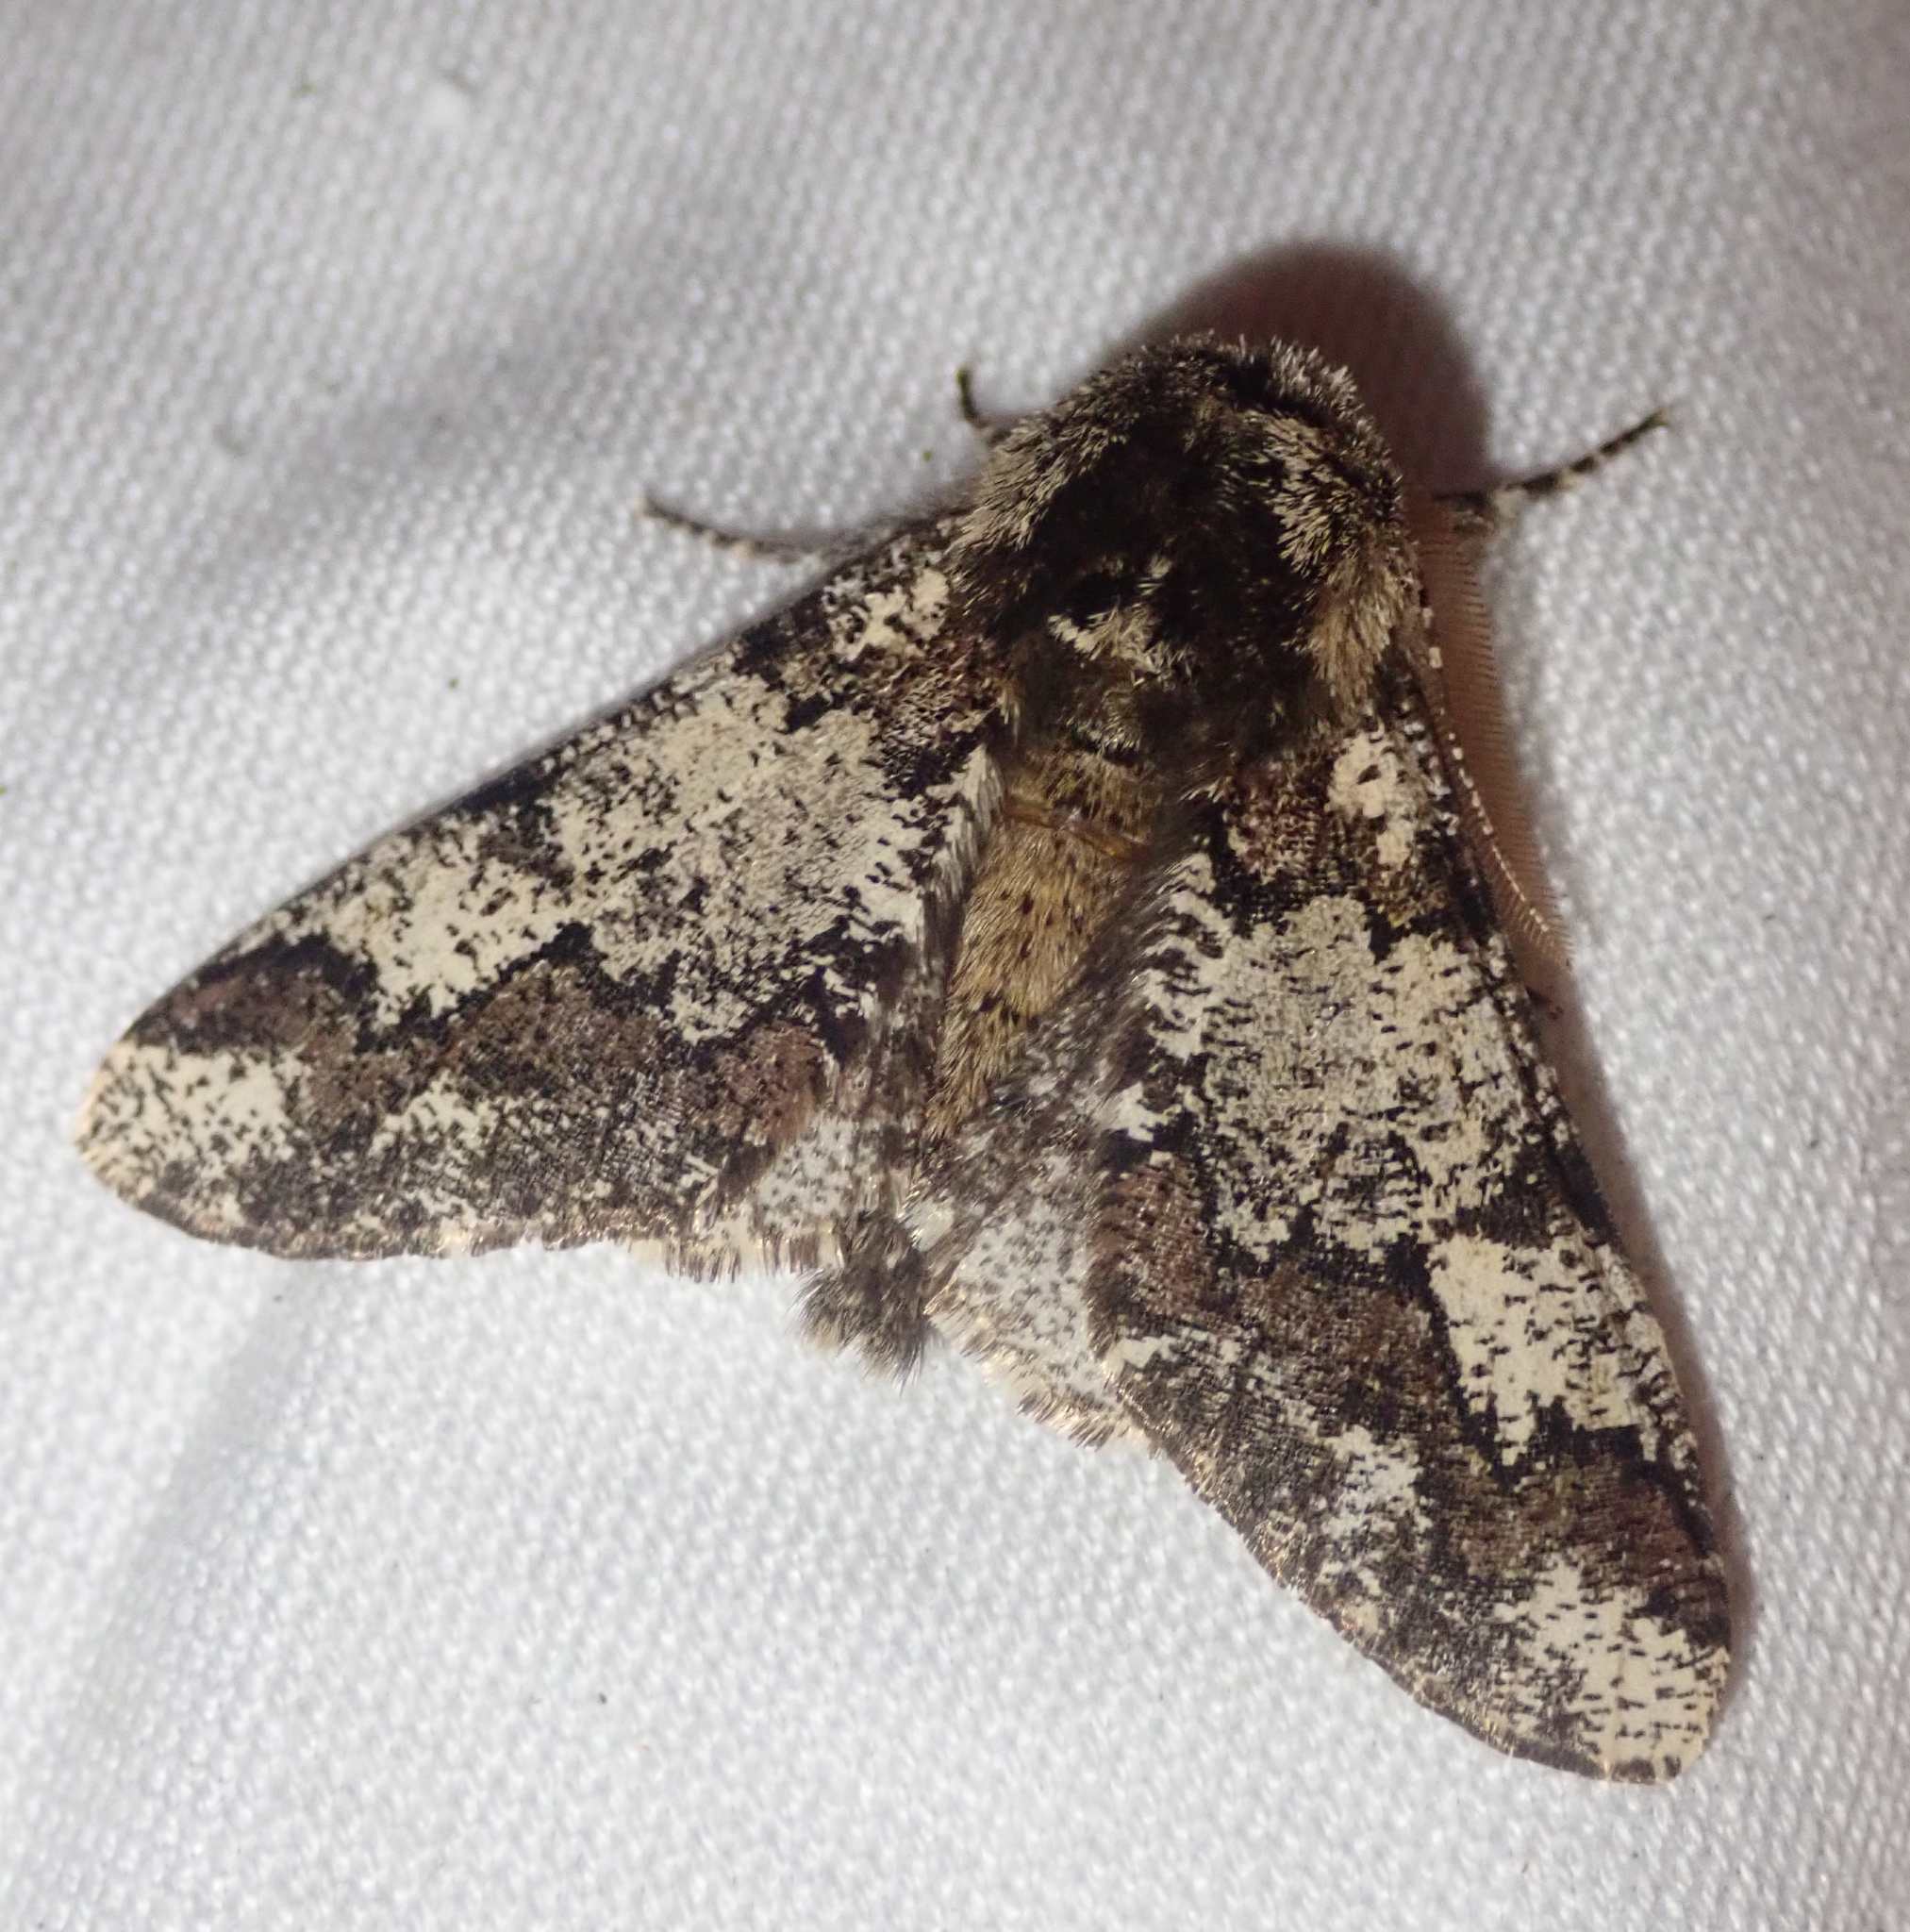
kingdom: Animalia
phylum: Arthropoda
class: Insecta
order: Lepidoptera
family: Geometridae
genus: Biston
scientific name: Biston strataria
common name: Oak beauty
